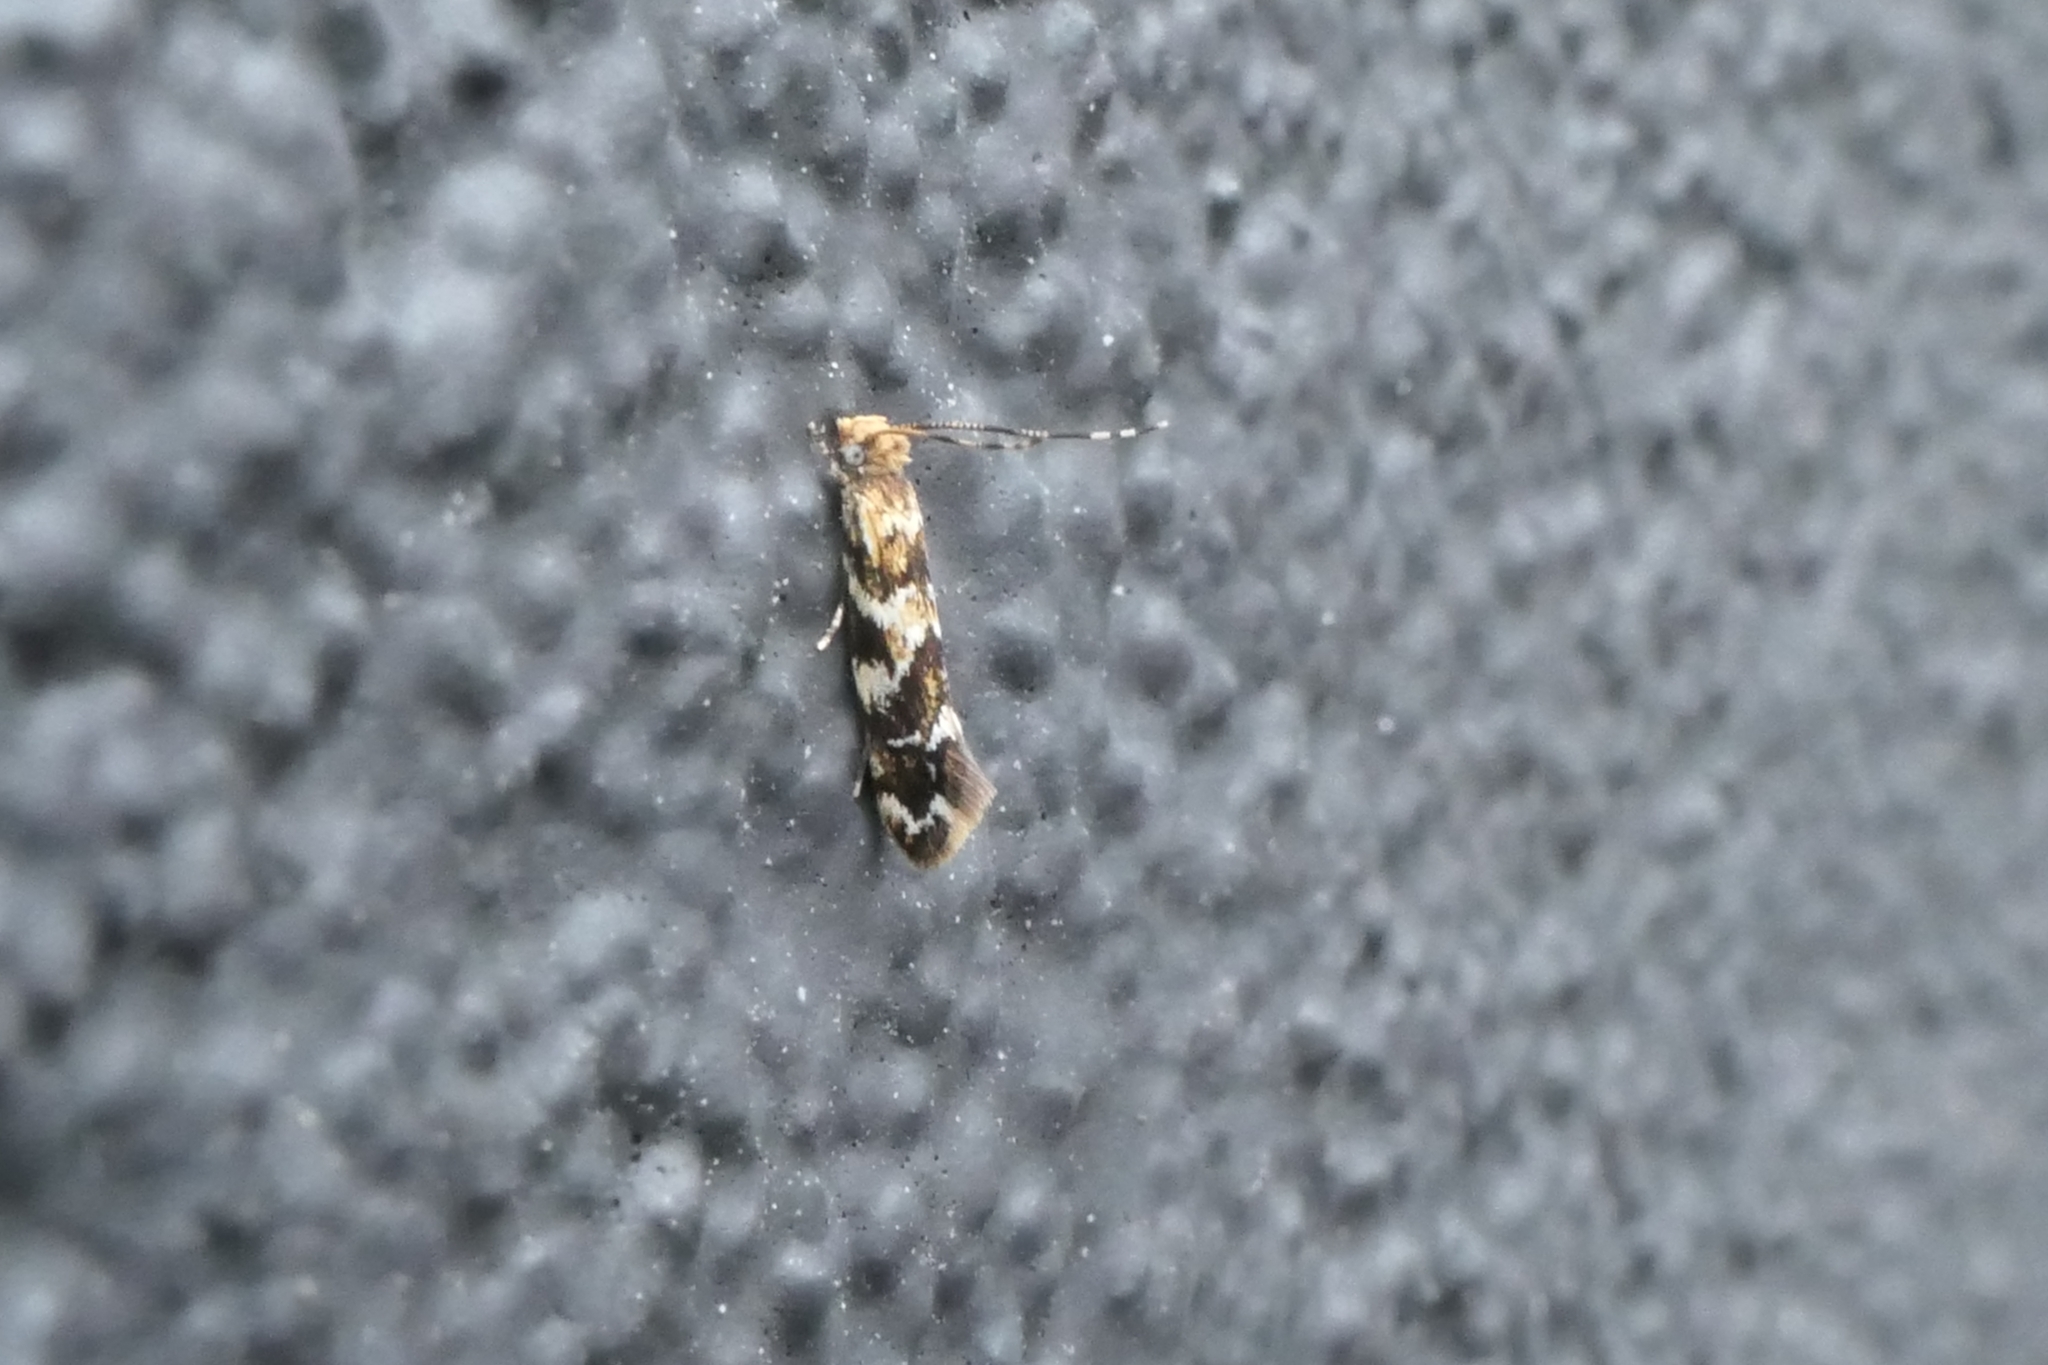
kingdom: Animalia
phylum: Arthropoda
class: Insecta
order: Lepidoptera
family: Dryadaulidae
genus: Dryadaula
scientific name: Dryadaula pactolia
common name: Cellar clothes
